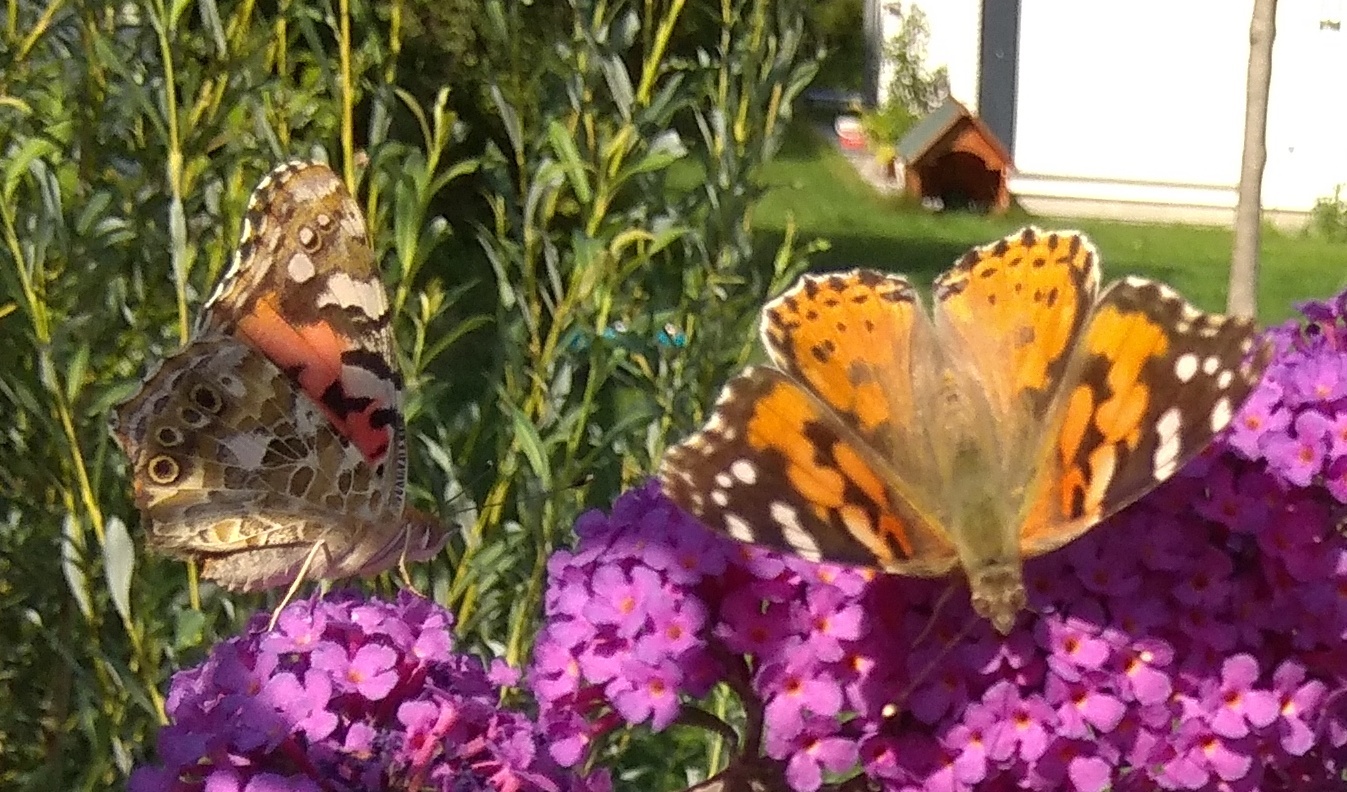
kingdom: Animalia
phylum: Arthropoda
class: Insecta
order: Lepidoptera
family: Nymphalidae
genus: Vanessa
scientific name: Vanessa cardui
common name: Painted lady
